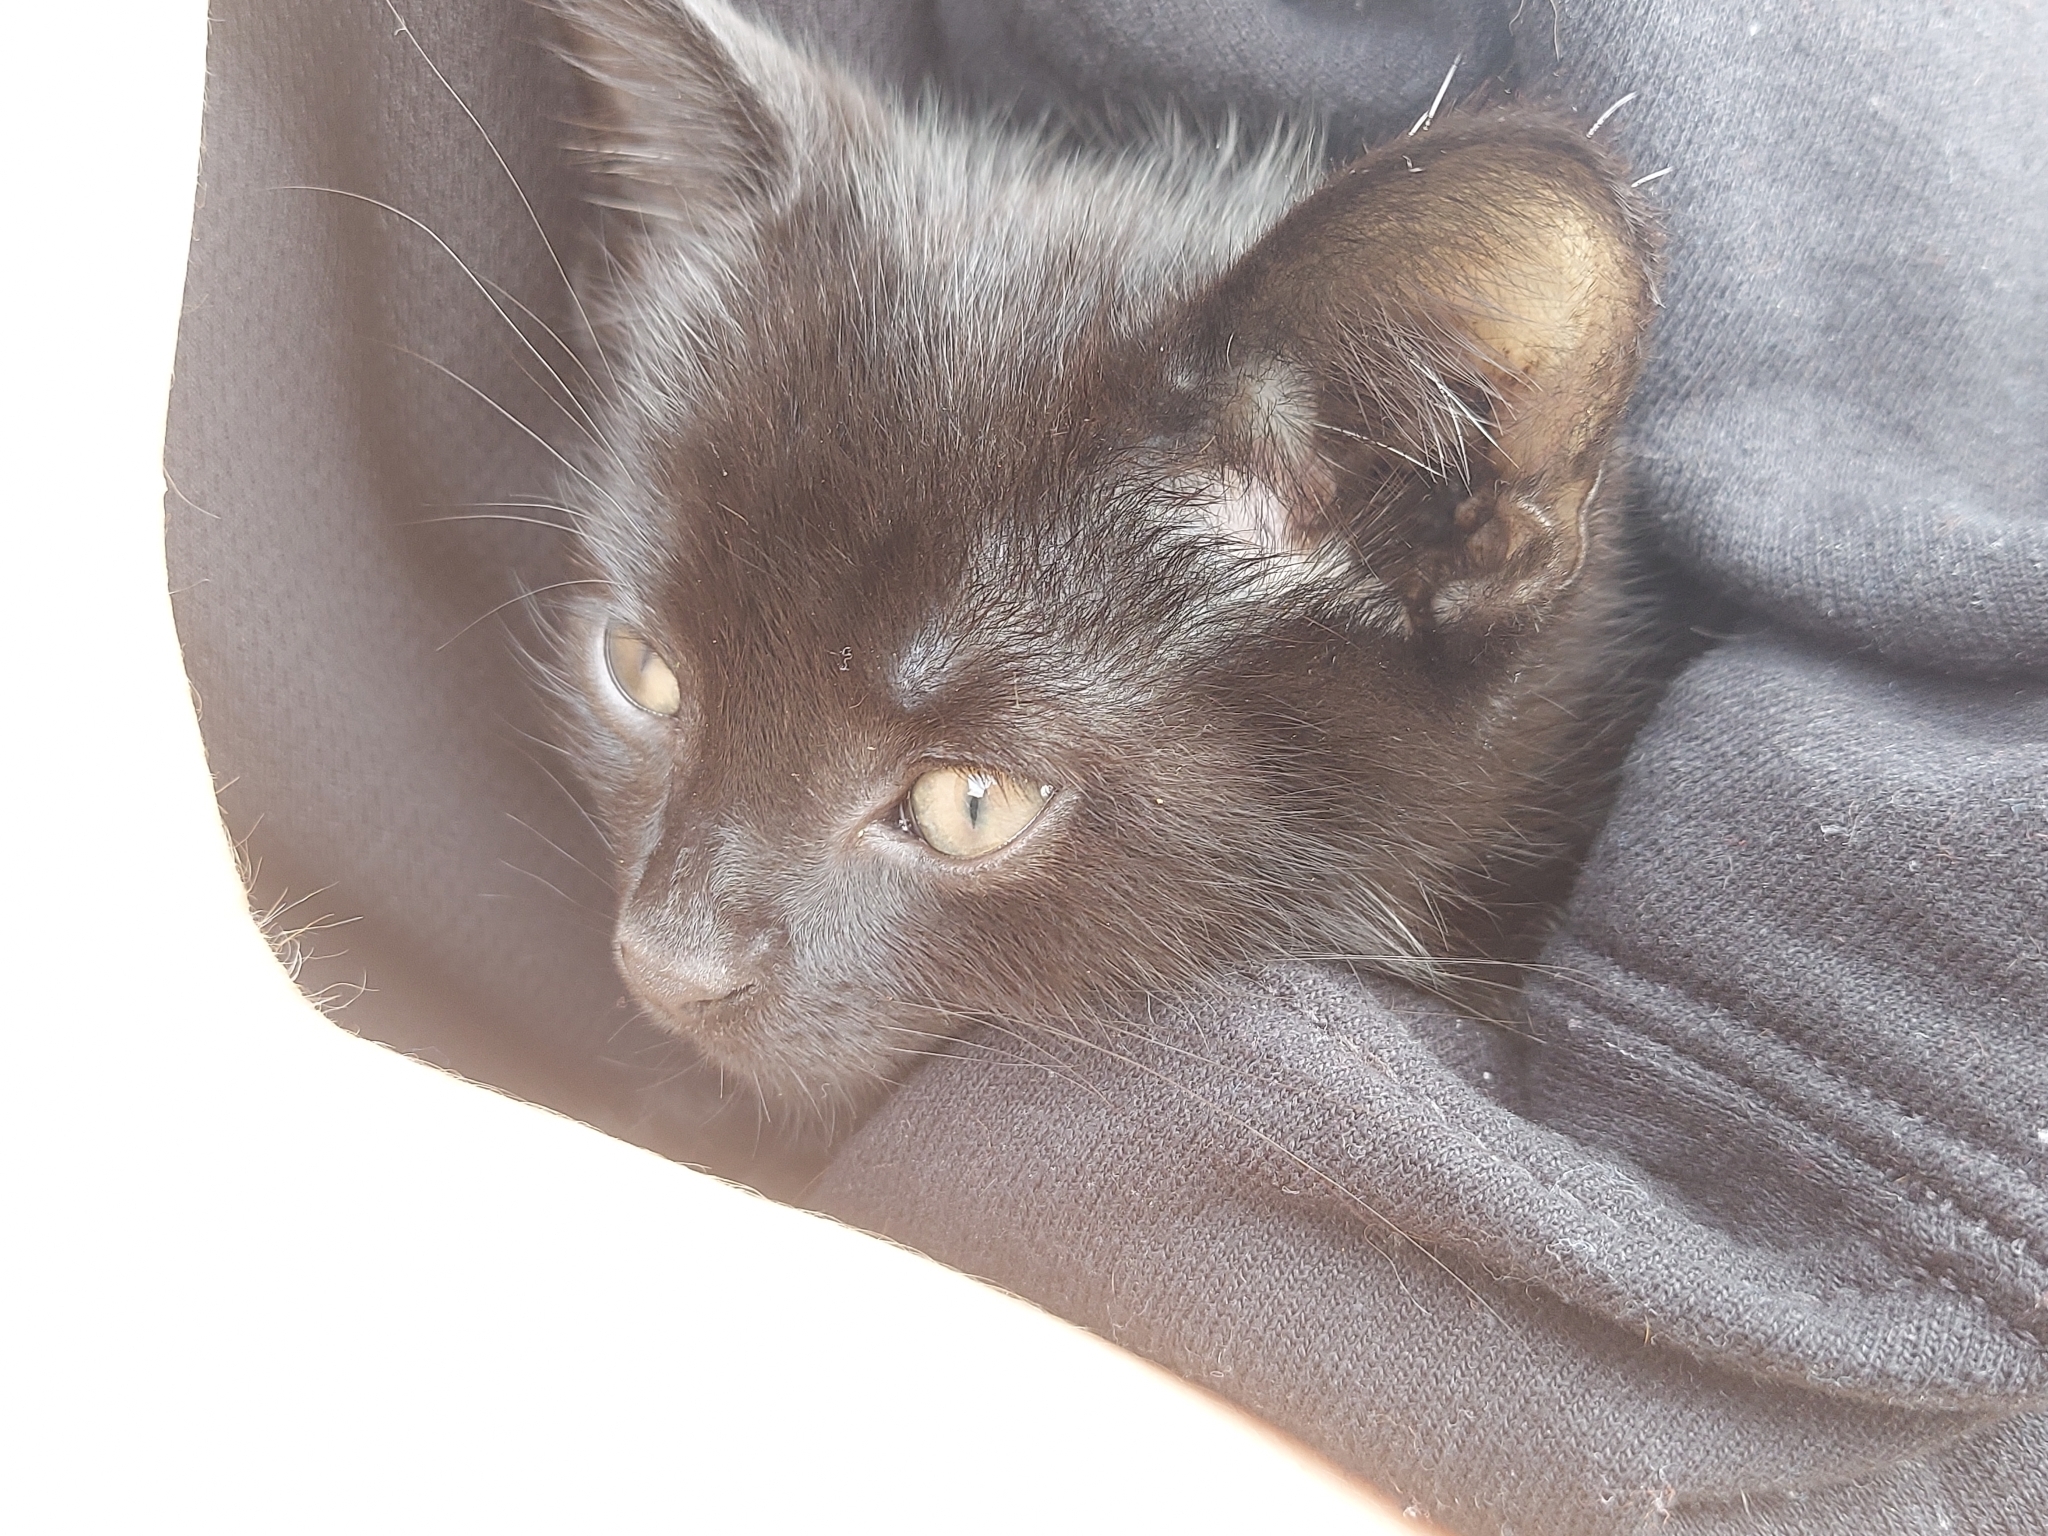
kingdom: Animalia
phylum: Chordata
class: Mammalia
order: Carnivora
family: Felidae
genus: Felis
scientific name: Felis catus
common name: Domestic cat
